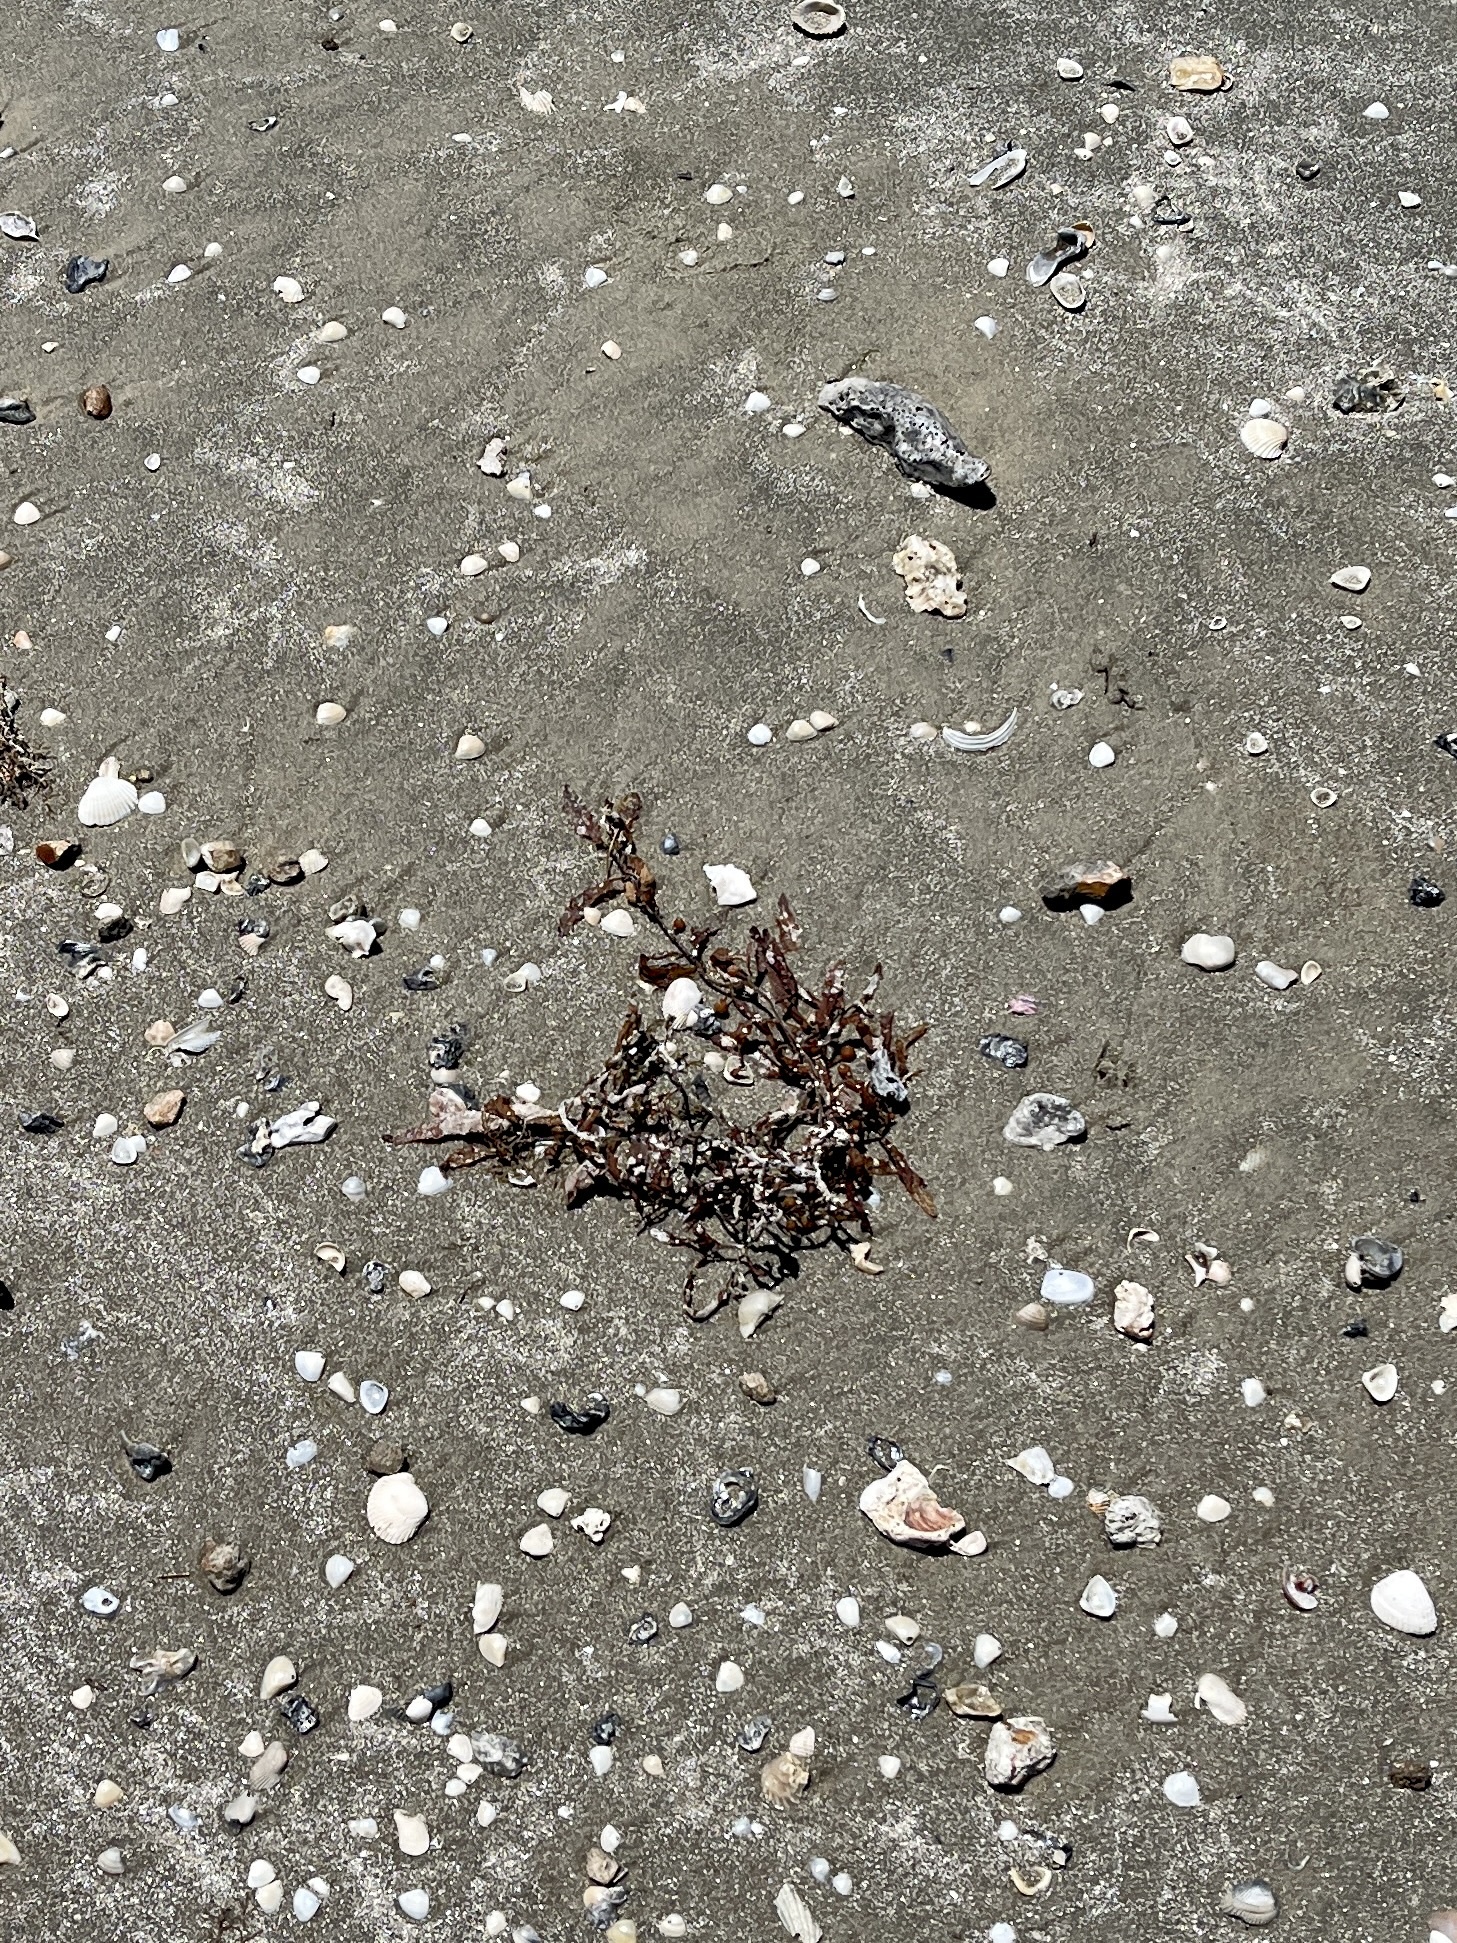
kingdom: Chromista
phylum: Ochrophyta
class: Phaeophyceae
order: Fucales
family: Sargassaceae
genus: Sargassum
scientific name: Sargassum fluitans
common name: Sargassum seaweed
